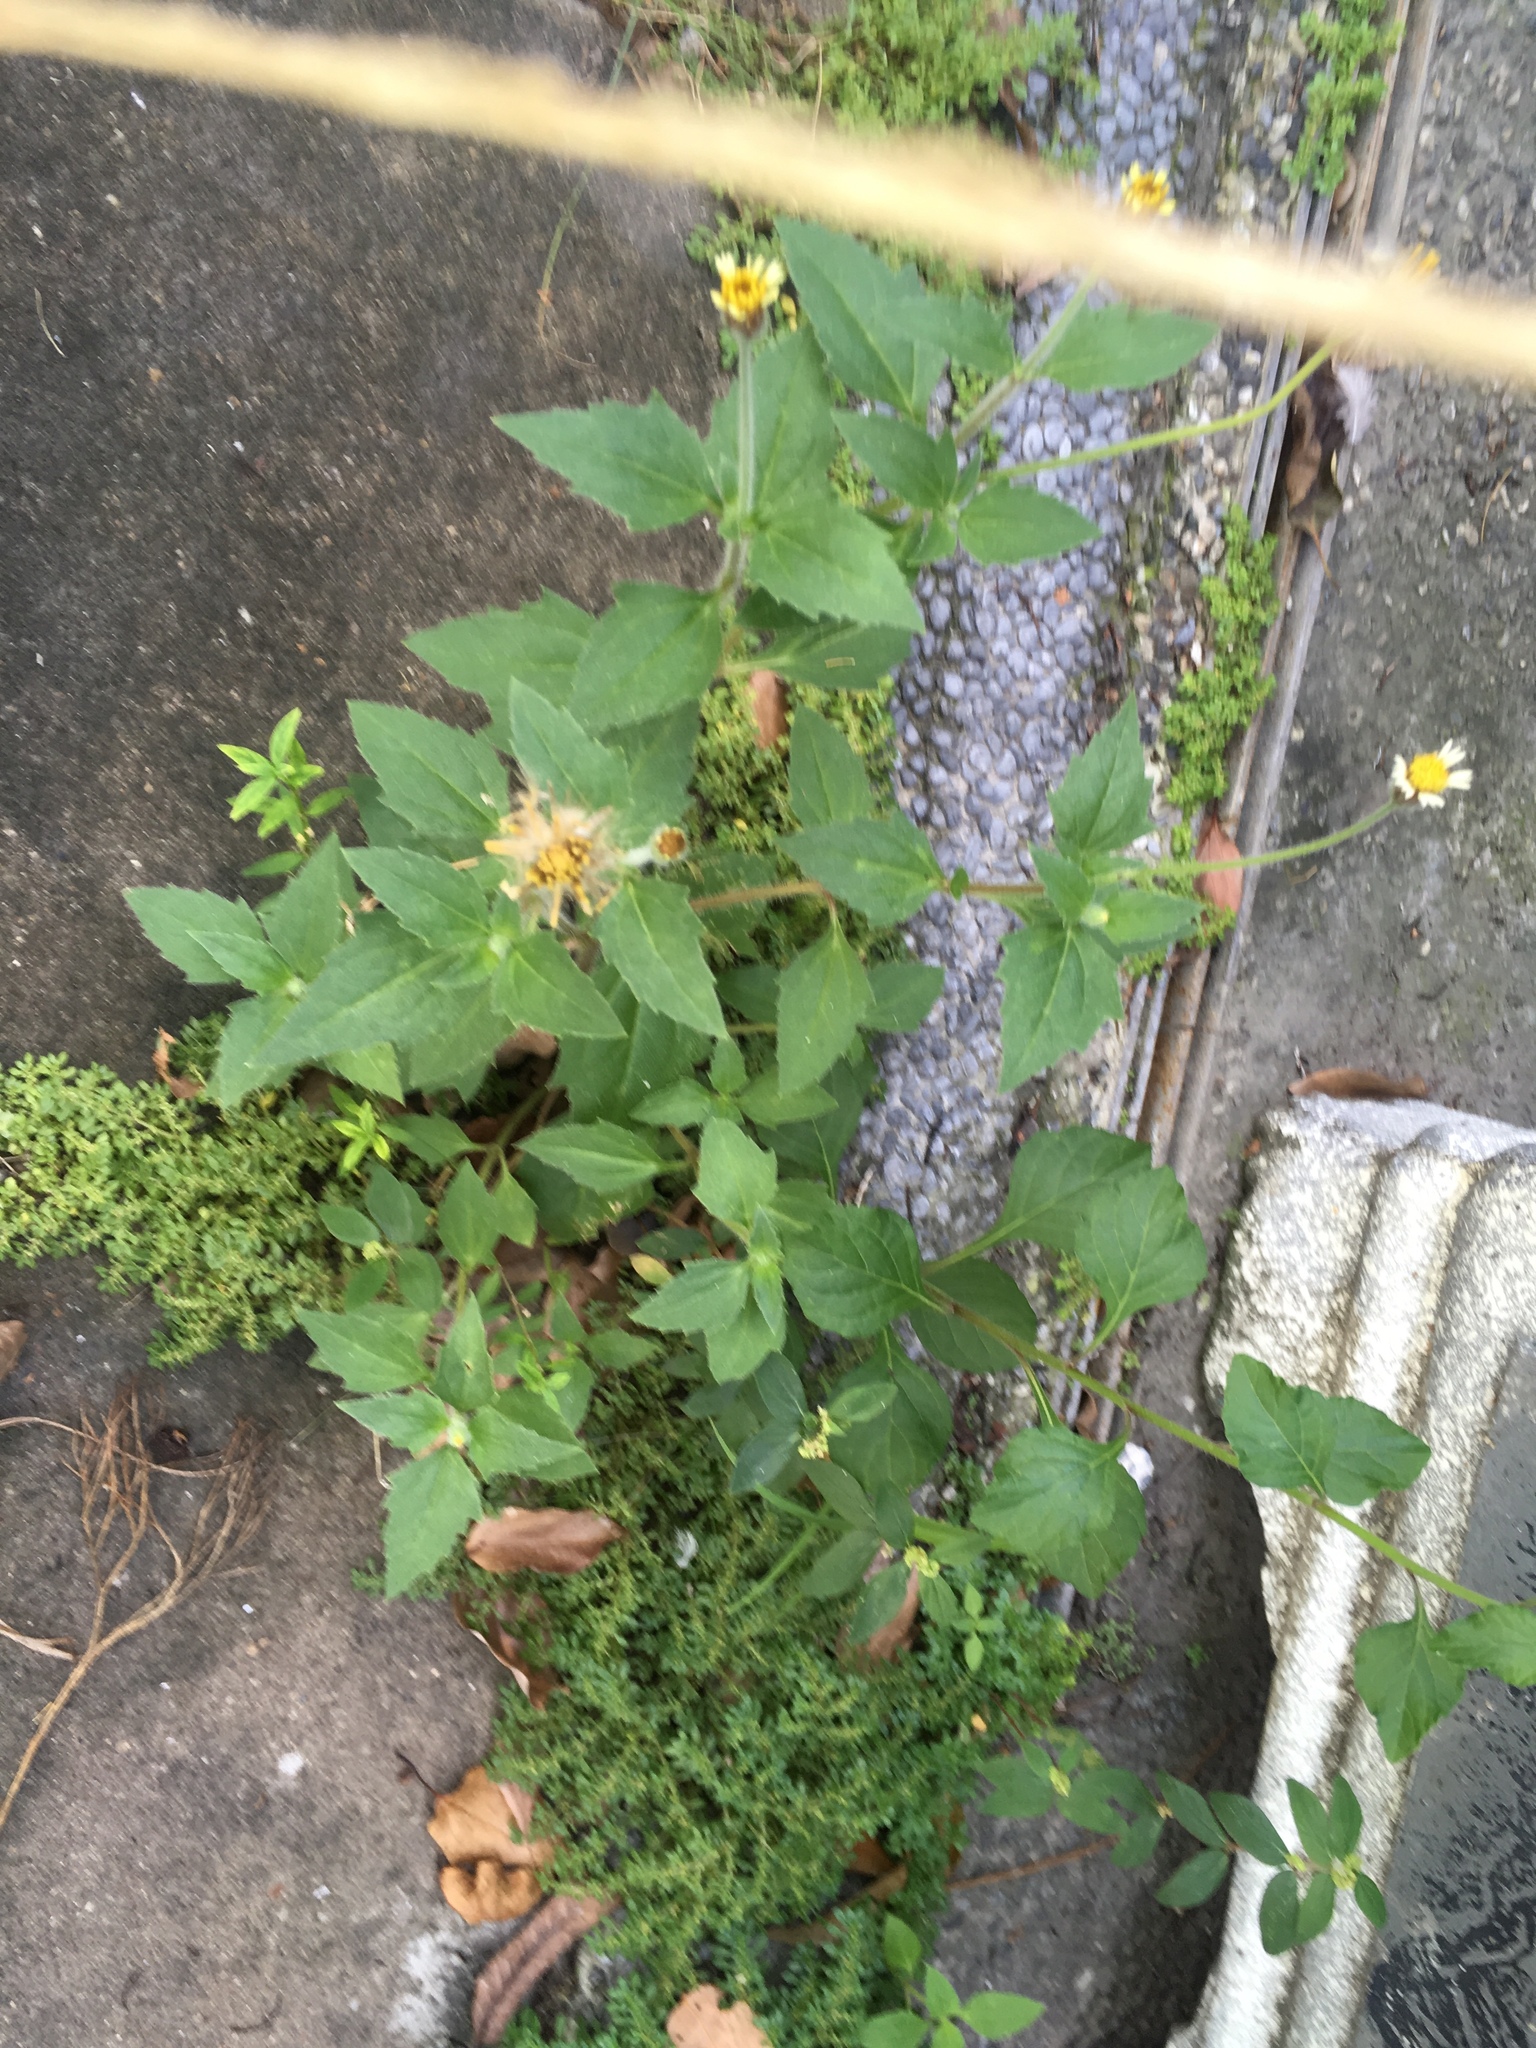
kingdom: Plantae
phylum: Tracheophyta
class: Magnoliopsida
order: Asterales
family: Asteraceae
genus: Tridax
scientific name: Tridax procumbens
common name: Coatbuttons
